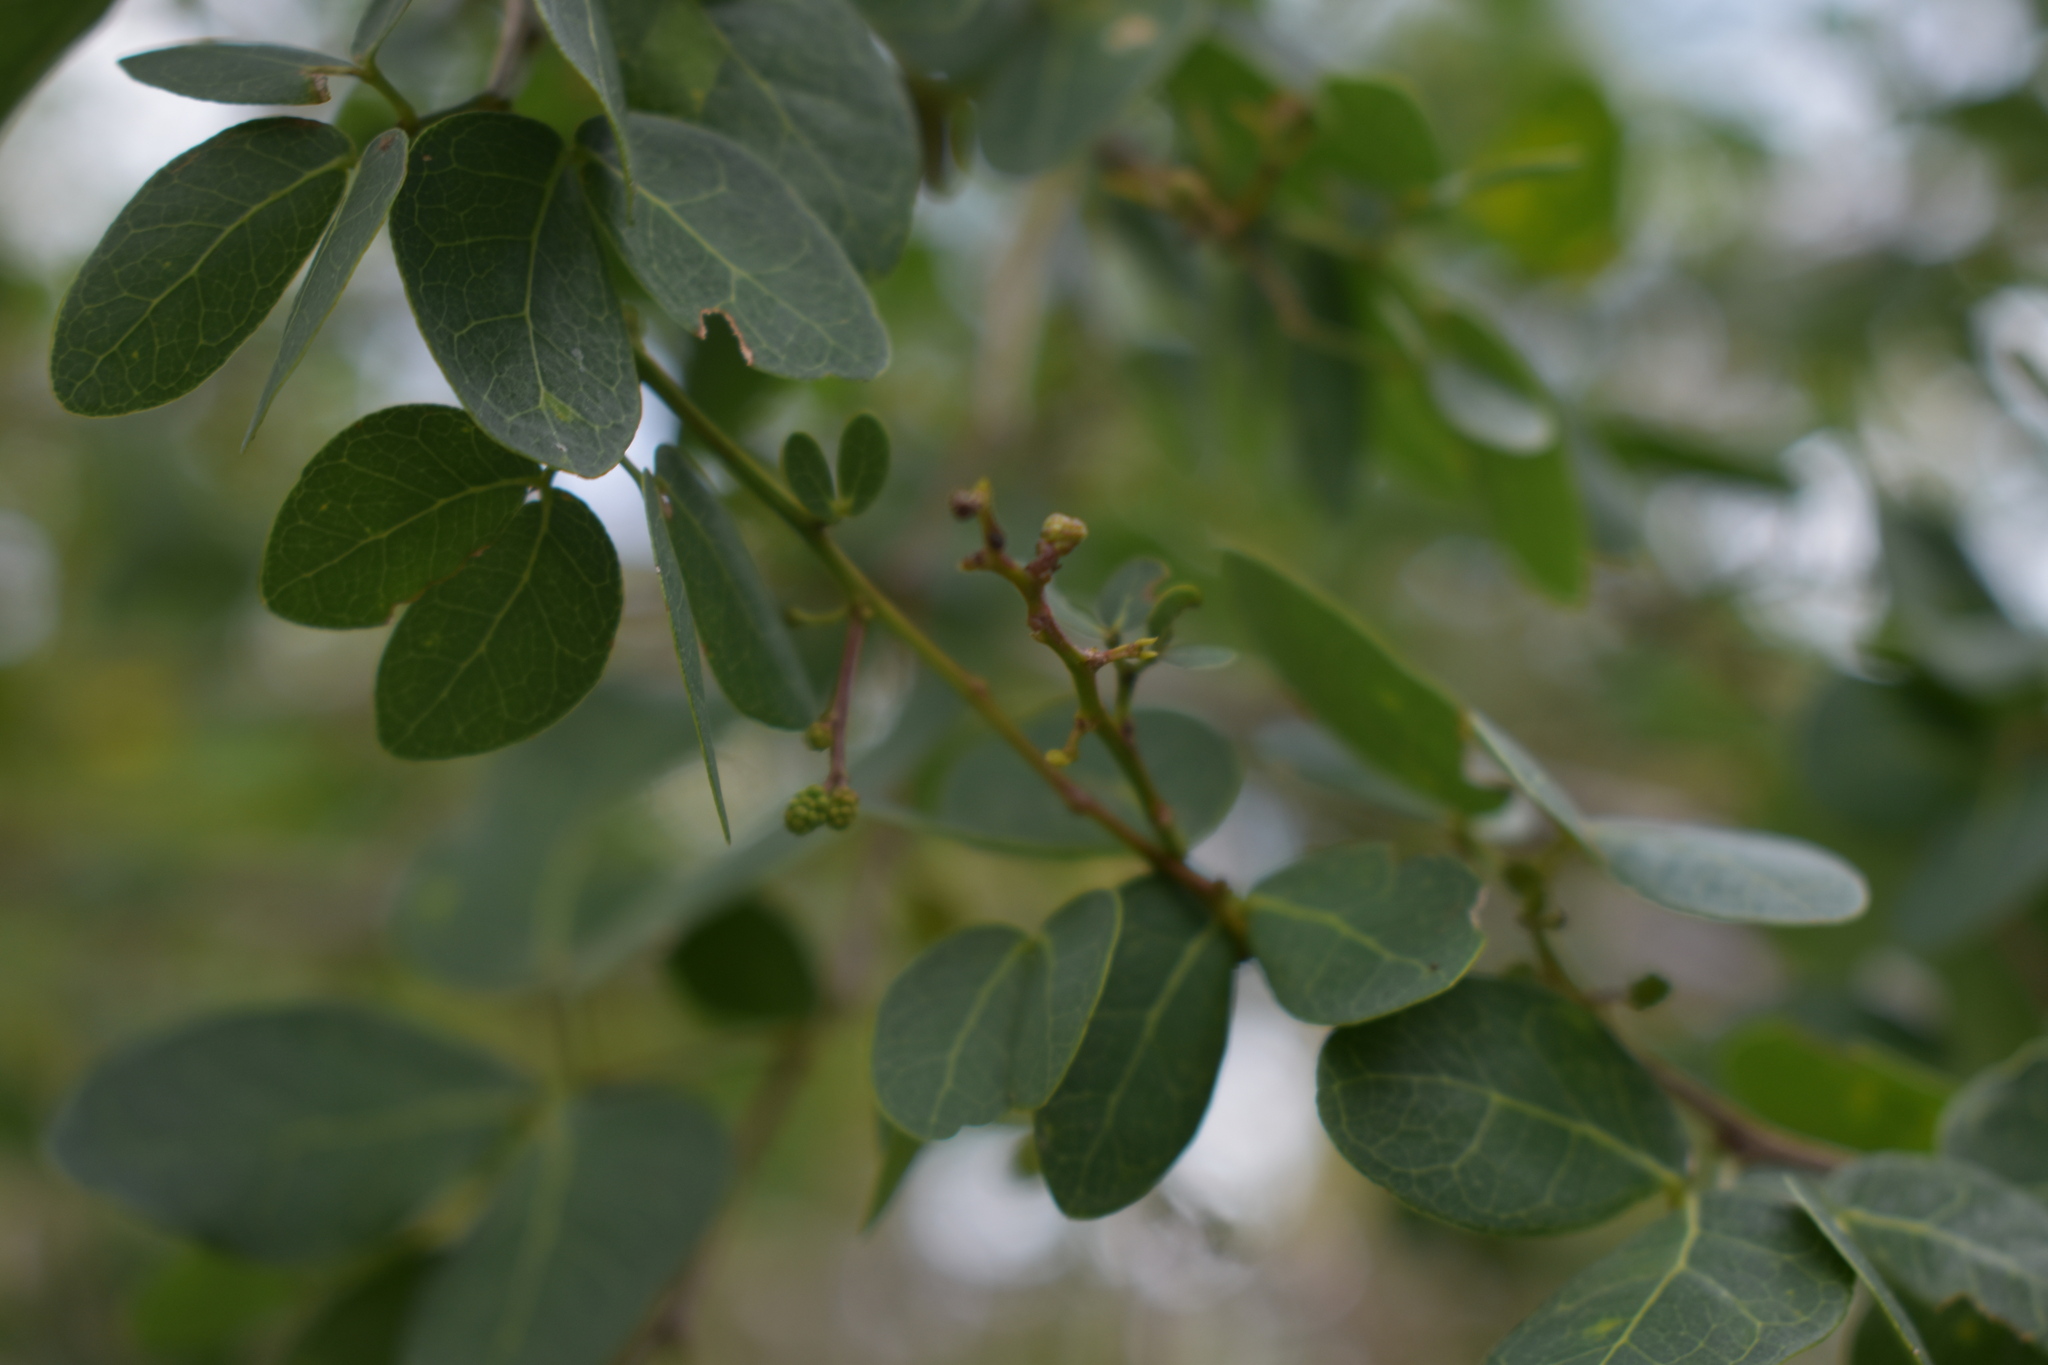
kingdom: Plantae
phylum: Tracheophyta
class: Magnoliopsida
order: Fabales
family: Fabaceae
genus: Pithecellobium
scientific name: Pithecellobium unguis-cati
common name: Cat's-claw
